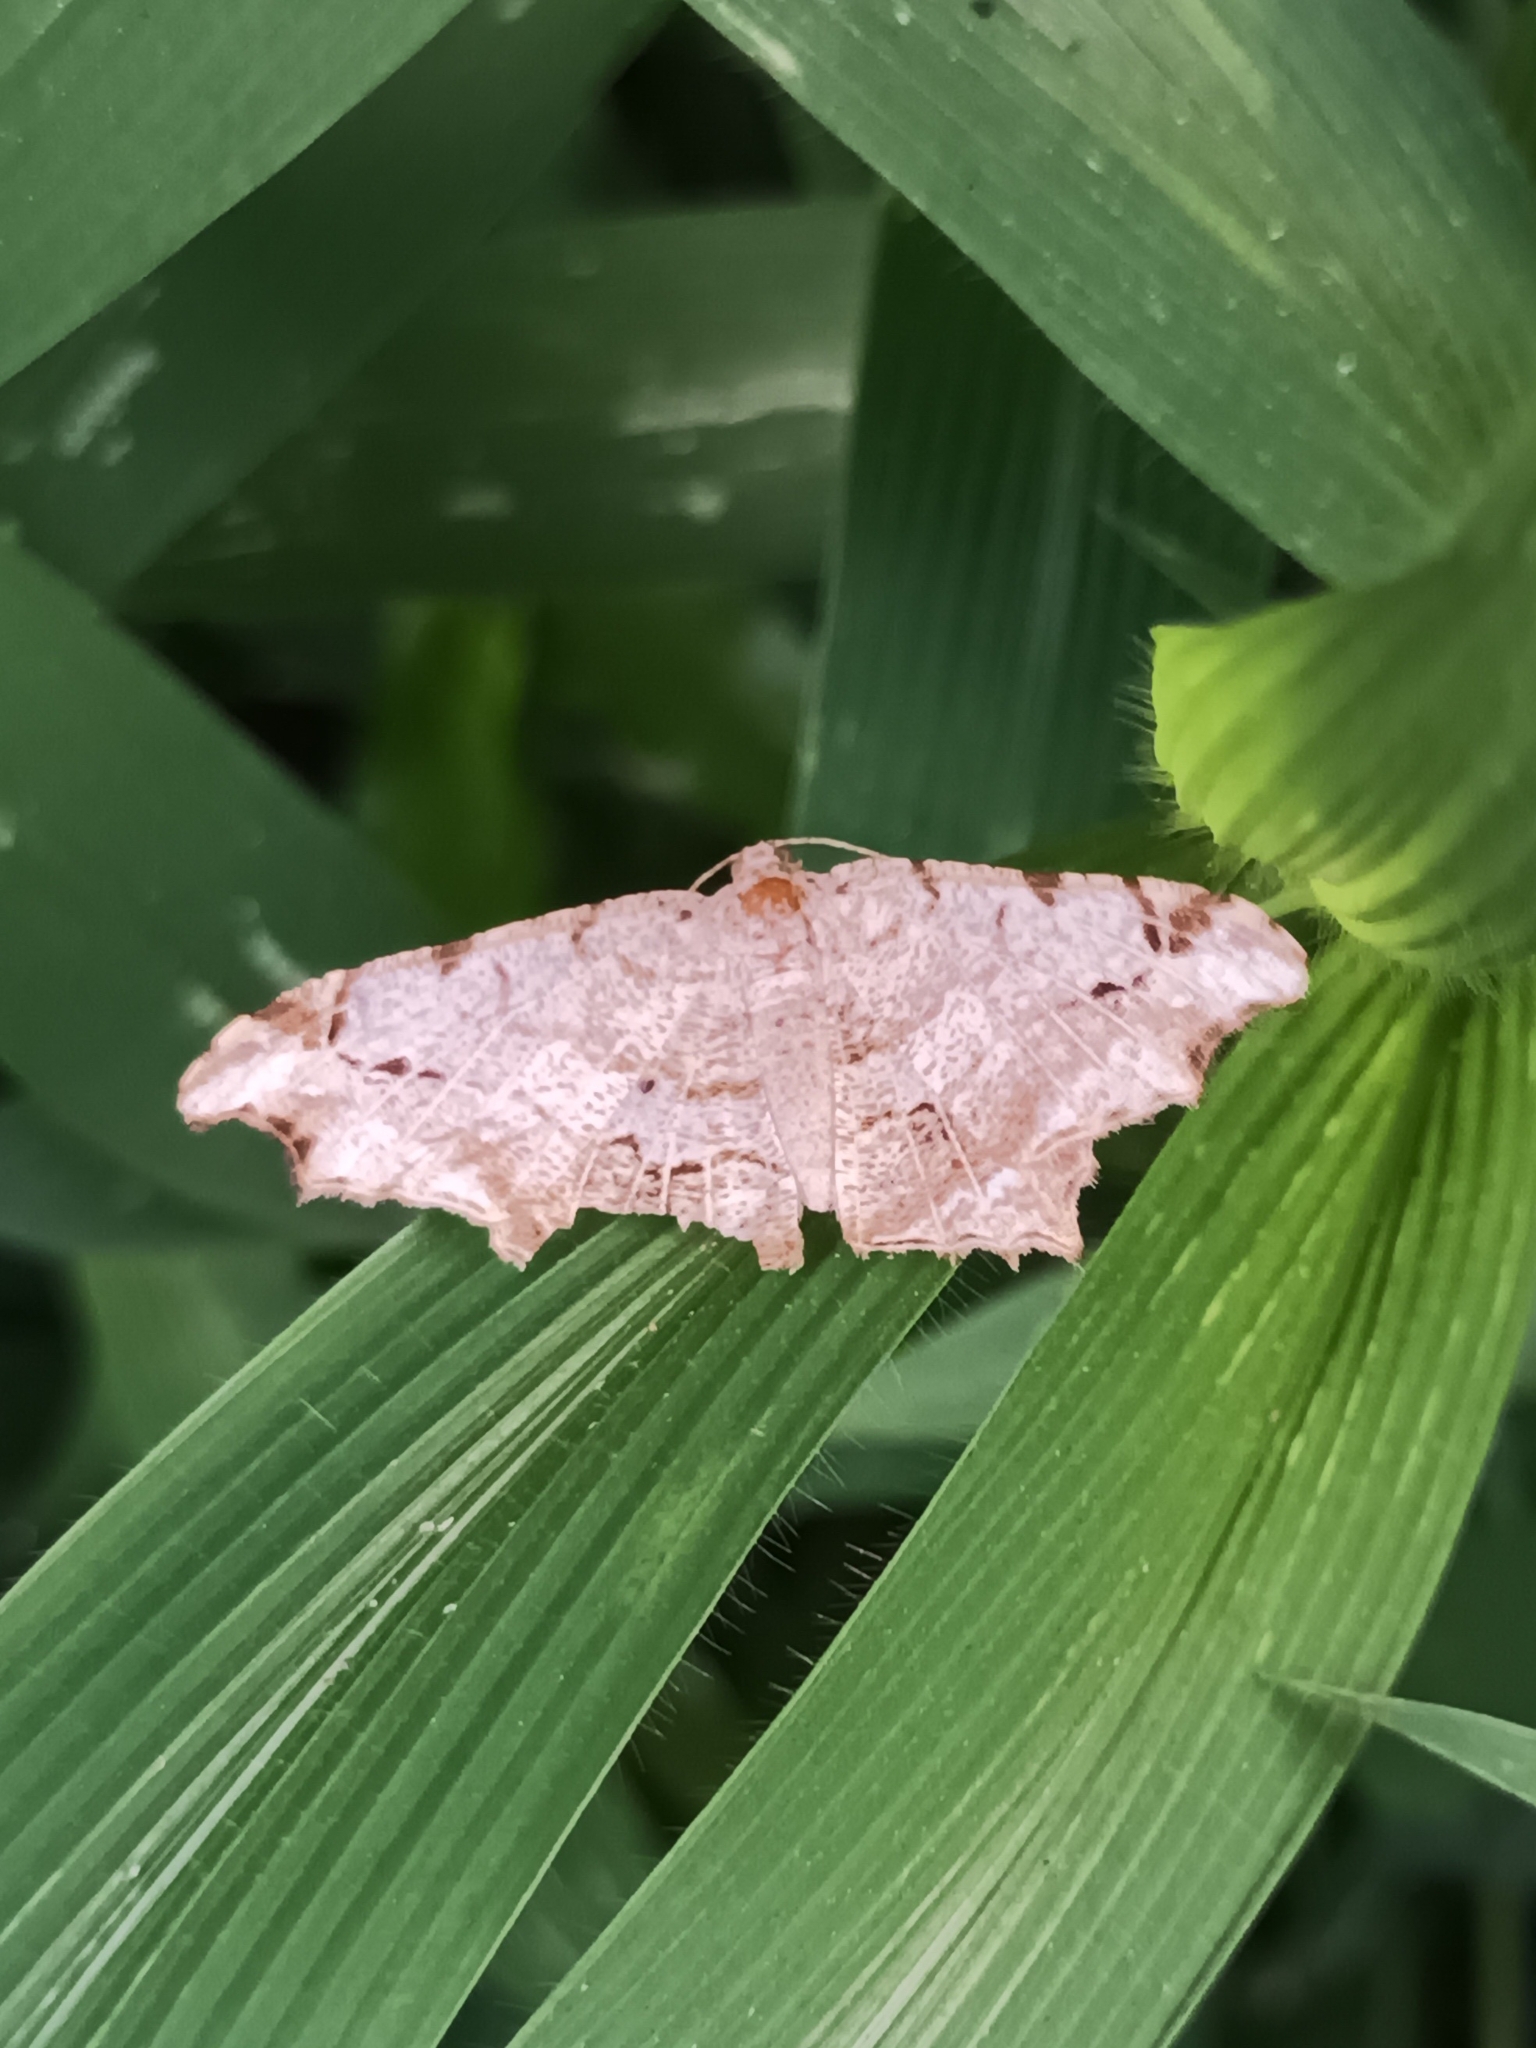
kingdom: Animalia
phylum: Arthropoda
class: Insecta
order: Lepidoptera
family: Geometridae
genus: Chiasmia
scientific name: Chiasmia emersaria
